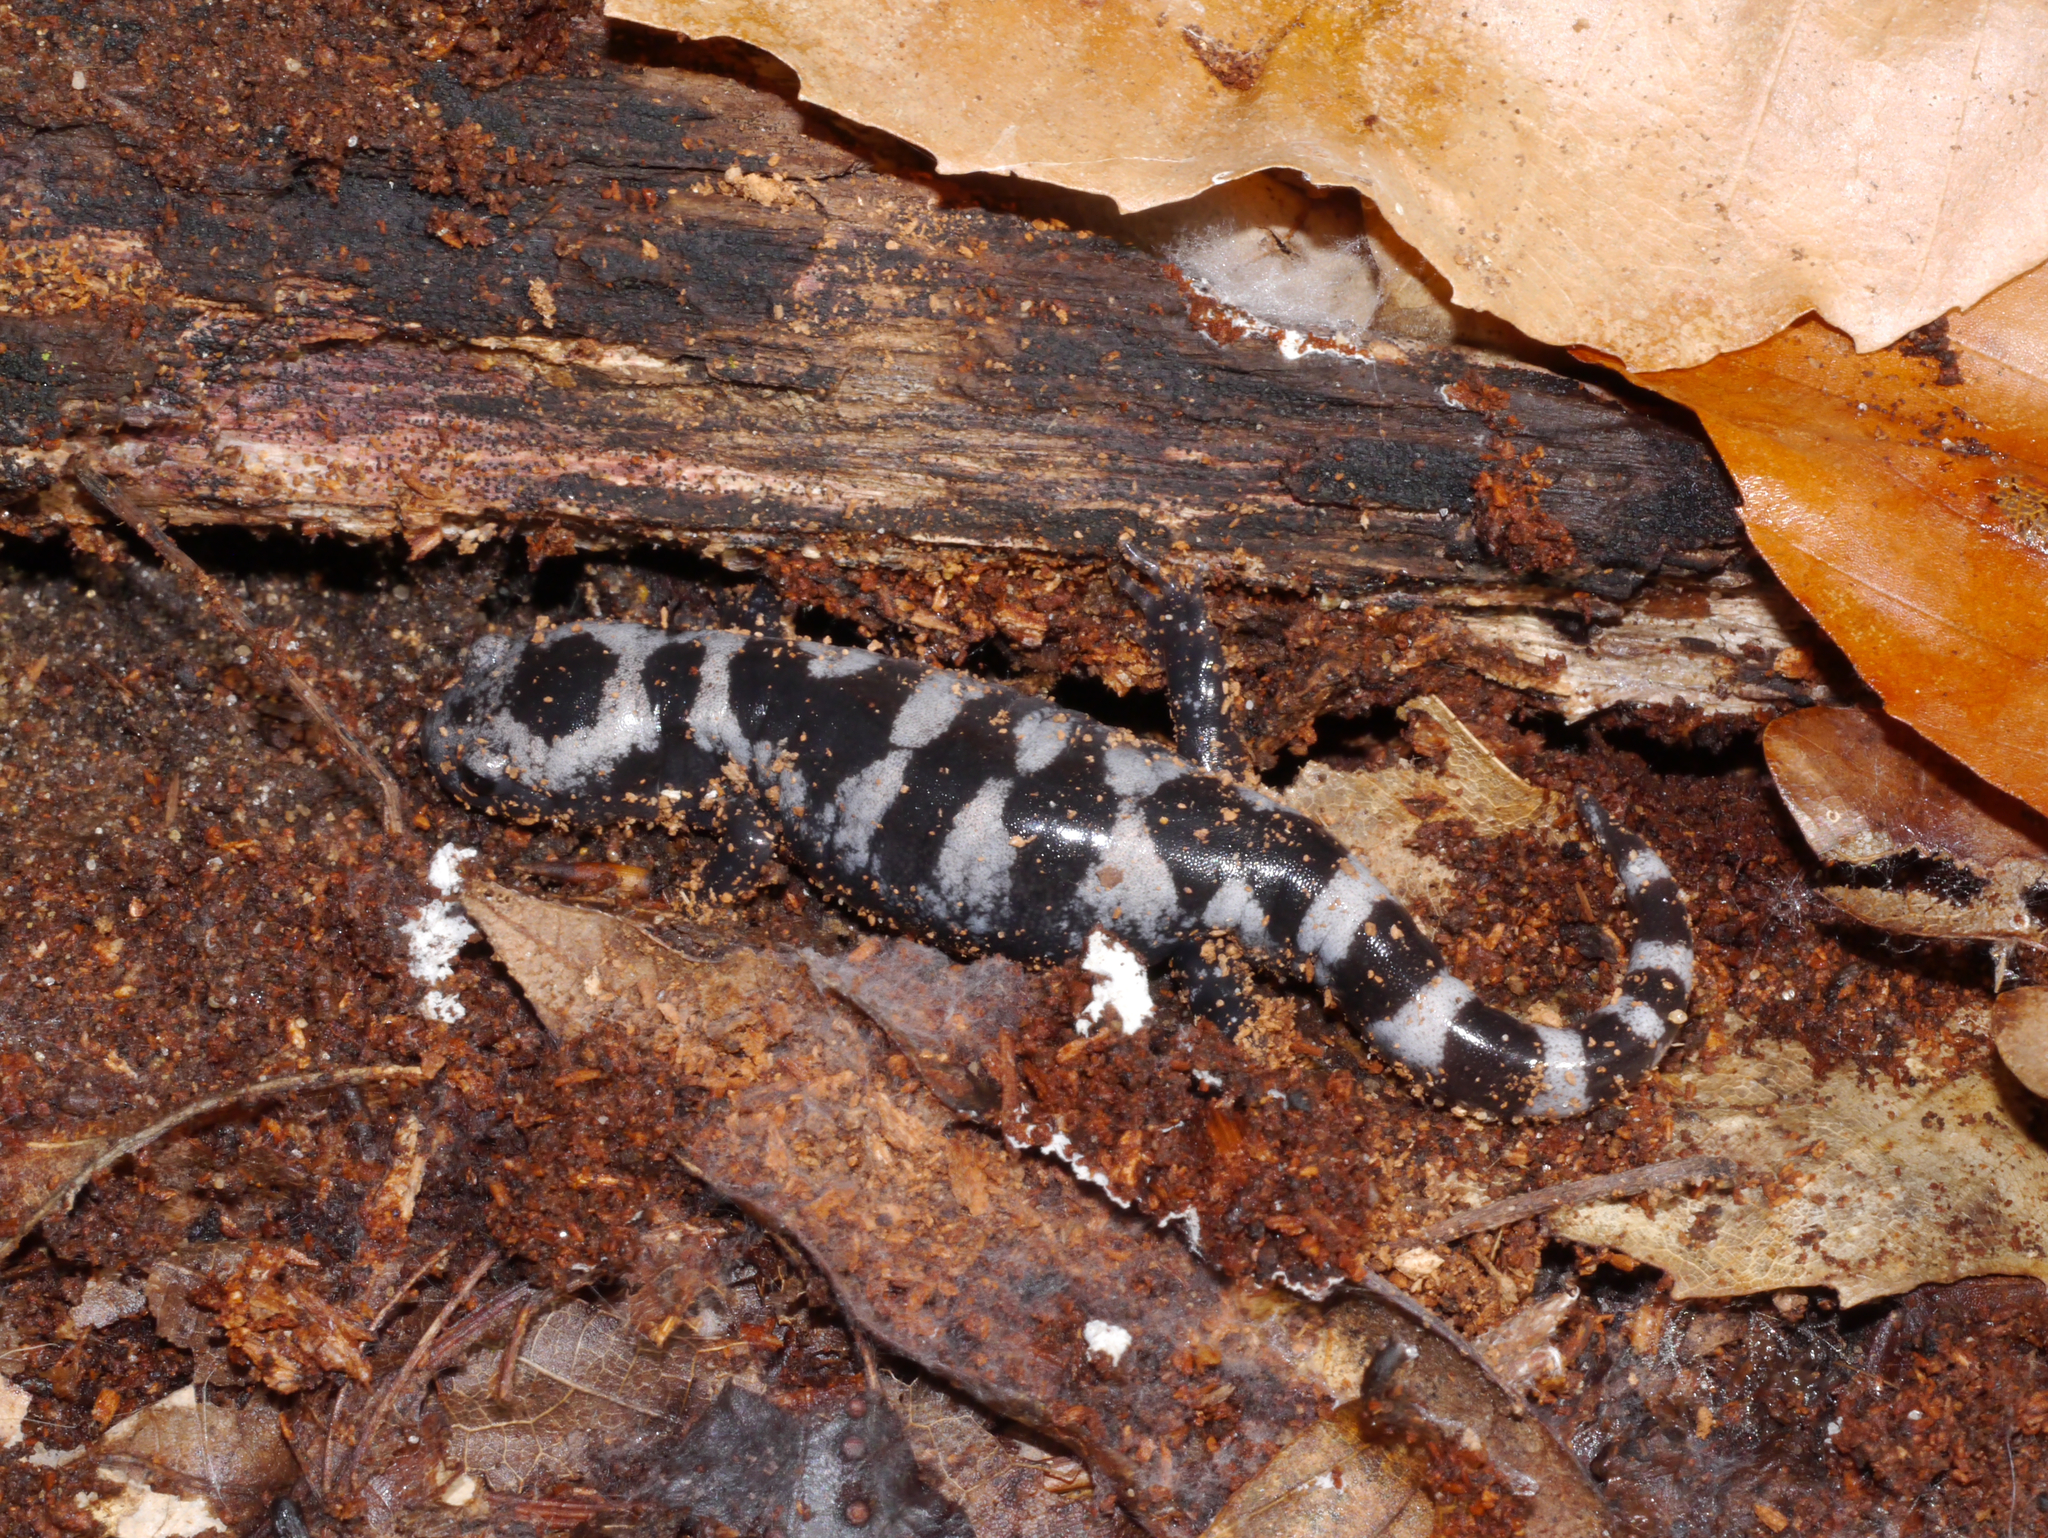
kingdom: Animalia
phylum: Chordata
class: Amphibia
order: Caudata
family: Ambystomatidae
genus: Ambystoma
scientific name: Ambystoma opacum
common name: Marbled salamander
